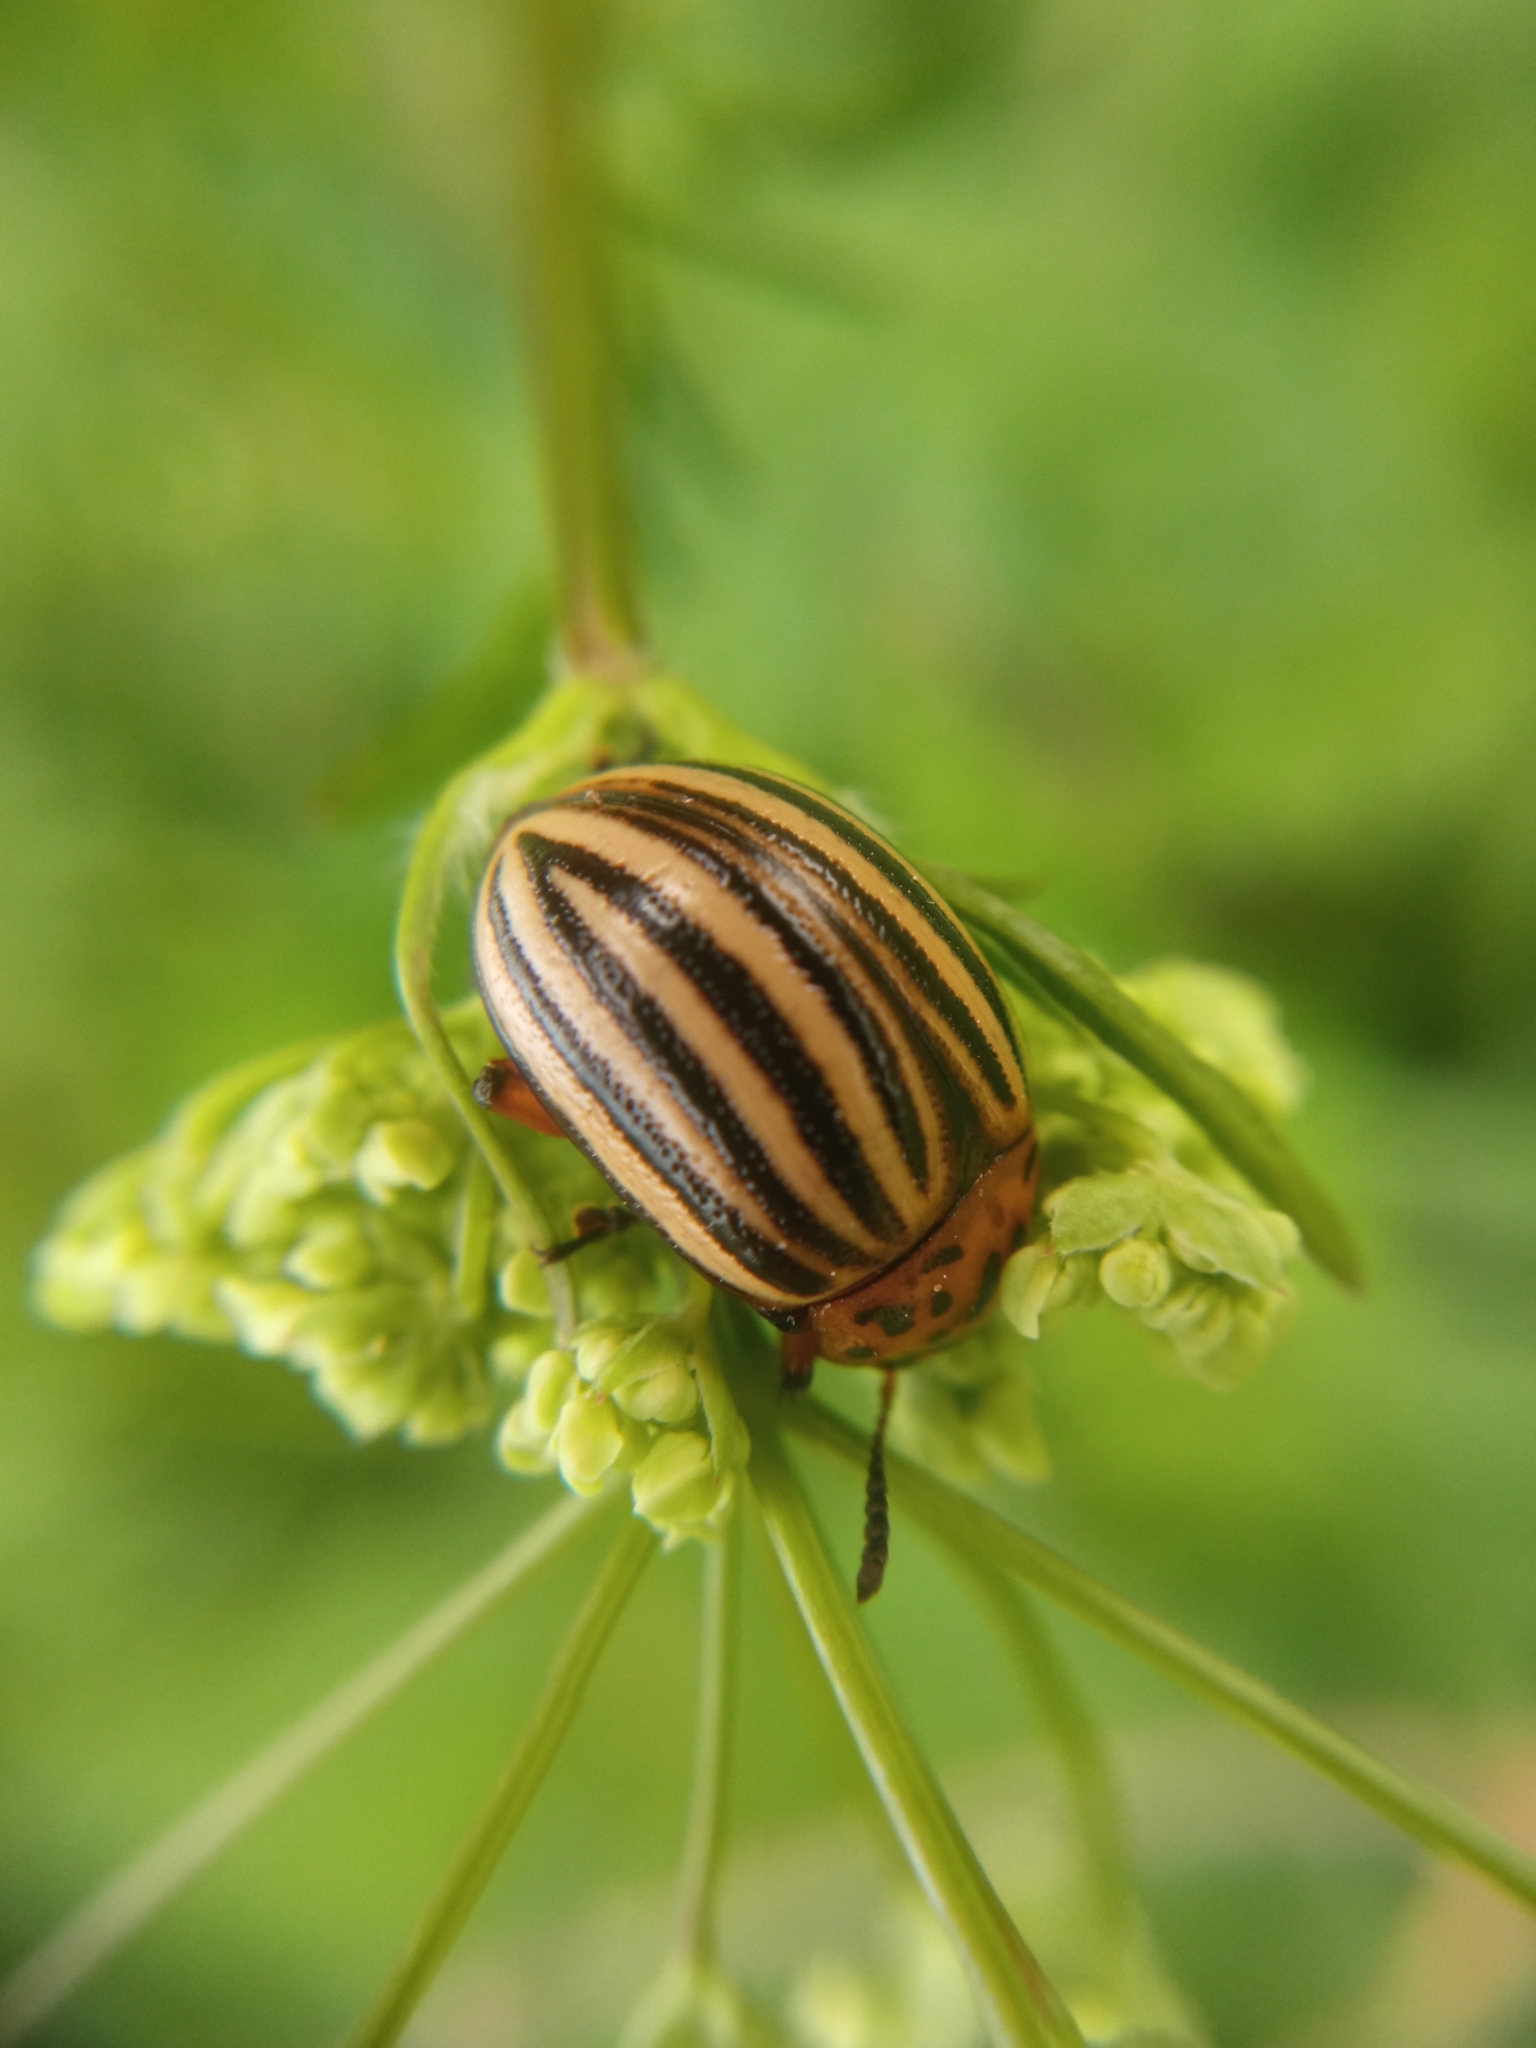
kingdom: Animalia
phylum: Arthropoda
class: Insecta
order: Coleoptera
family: Chrysomelidae
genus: Leptinotarsa
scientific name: Leptinotarsa decemlineata
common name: Colorado potato beetle
